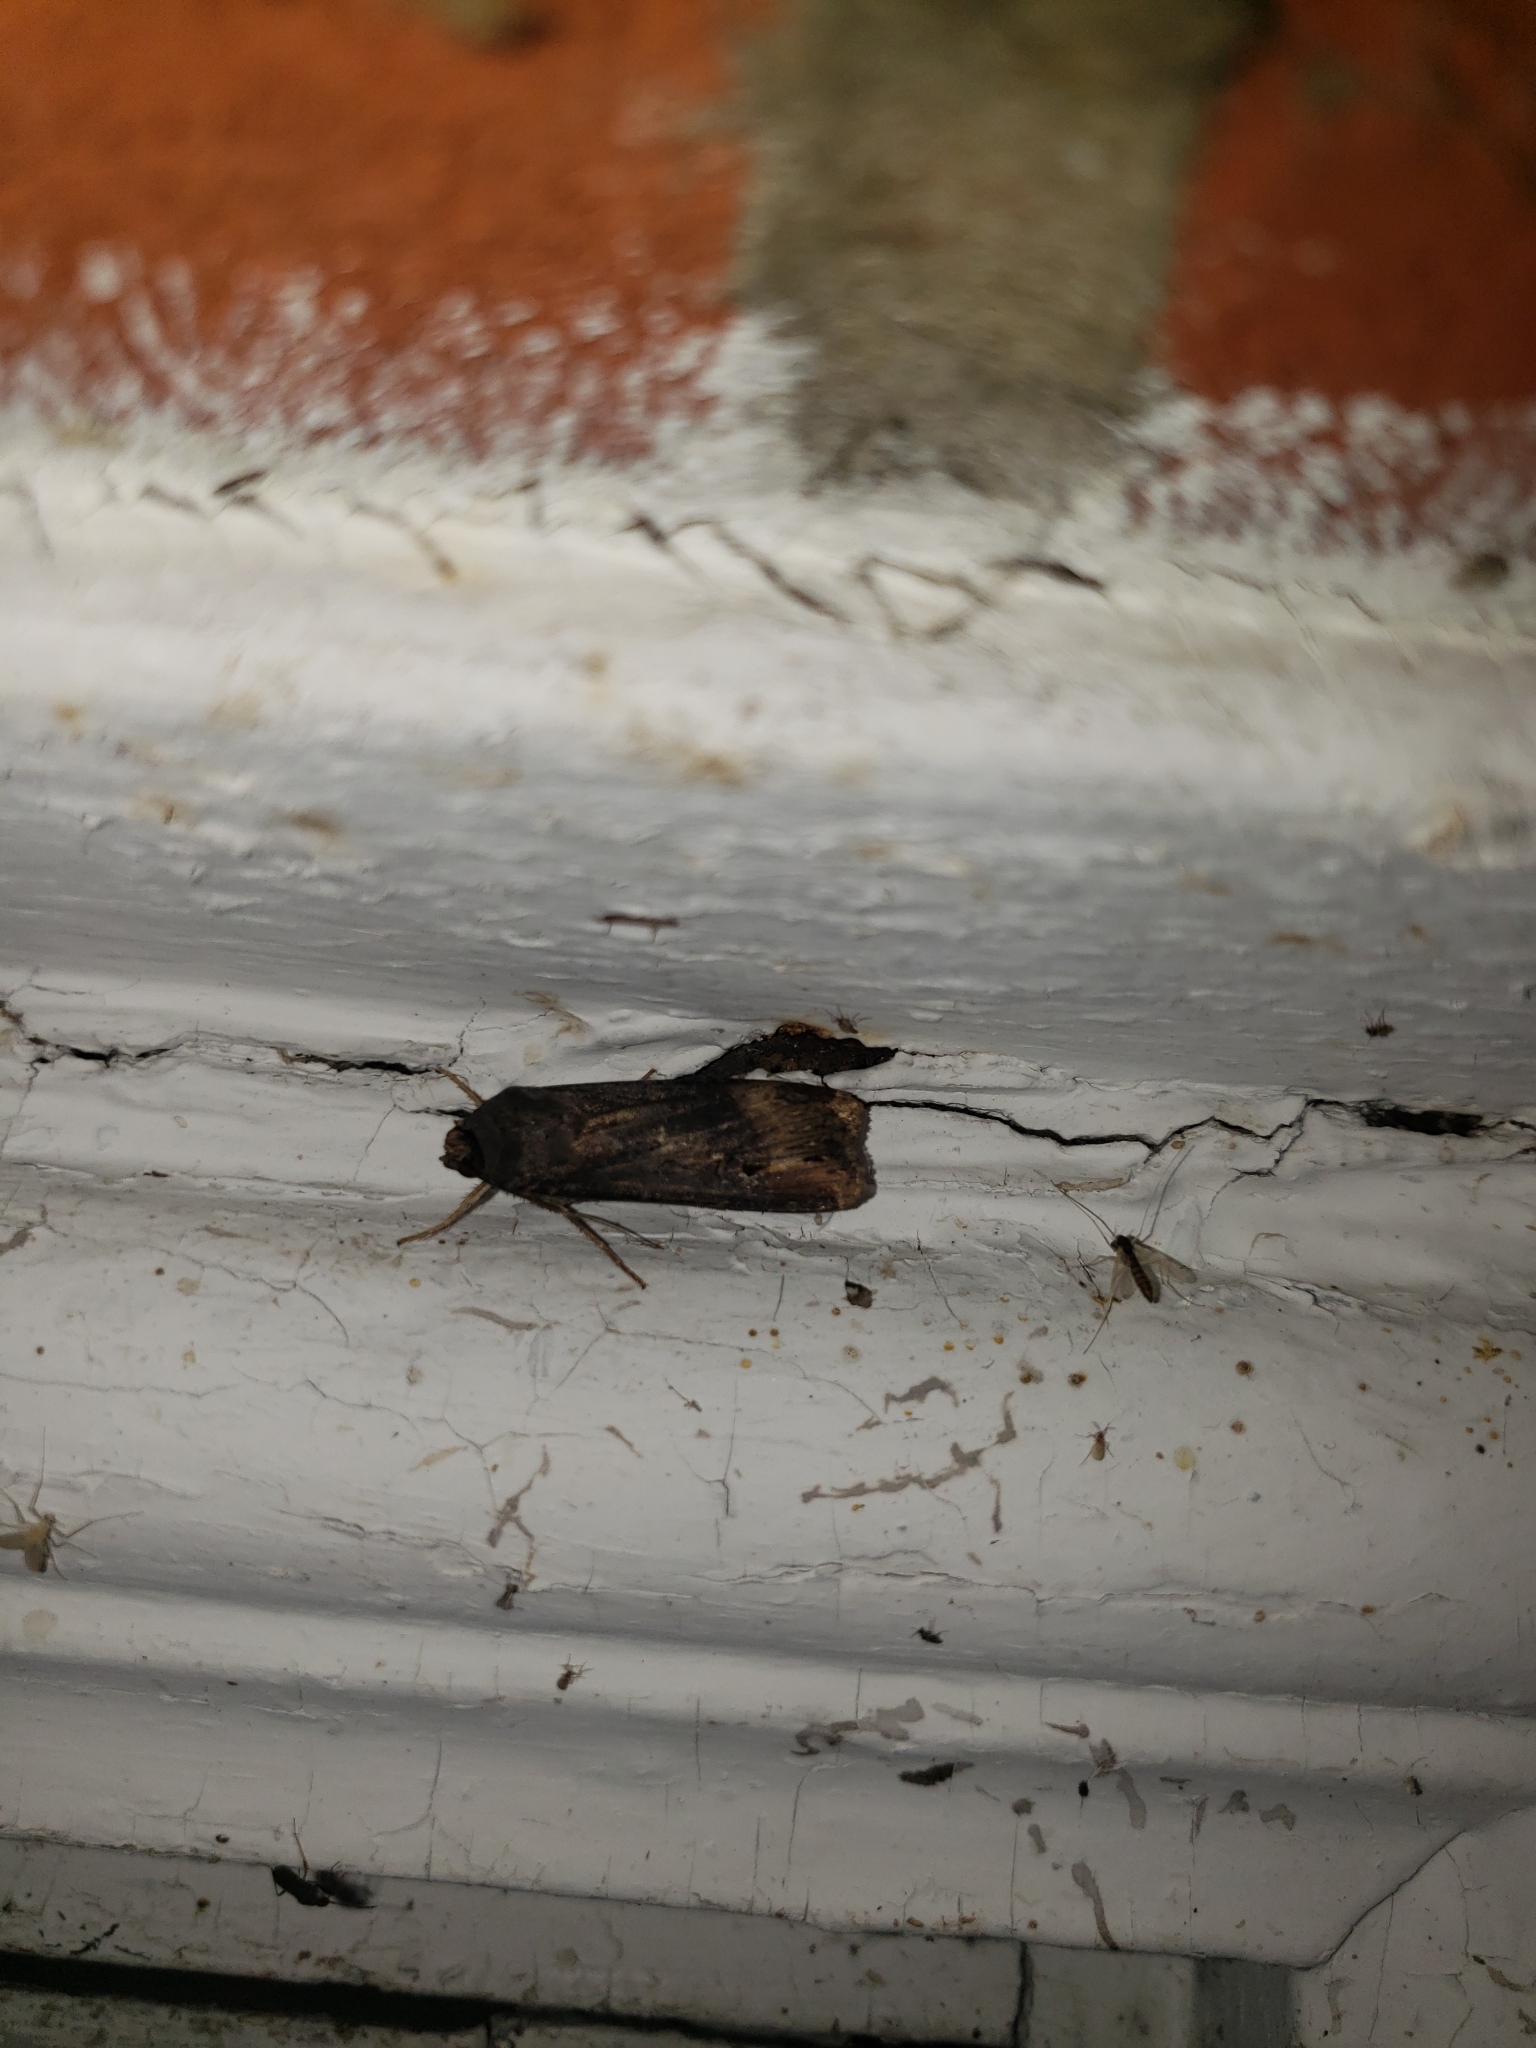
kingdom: Animalia
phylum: Arthropoda
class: Insecta
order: Lepidoptera
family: Noctuidae
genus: Agrotis
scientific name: Agrotis ipsilon
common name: Dark sword-grass
